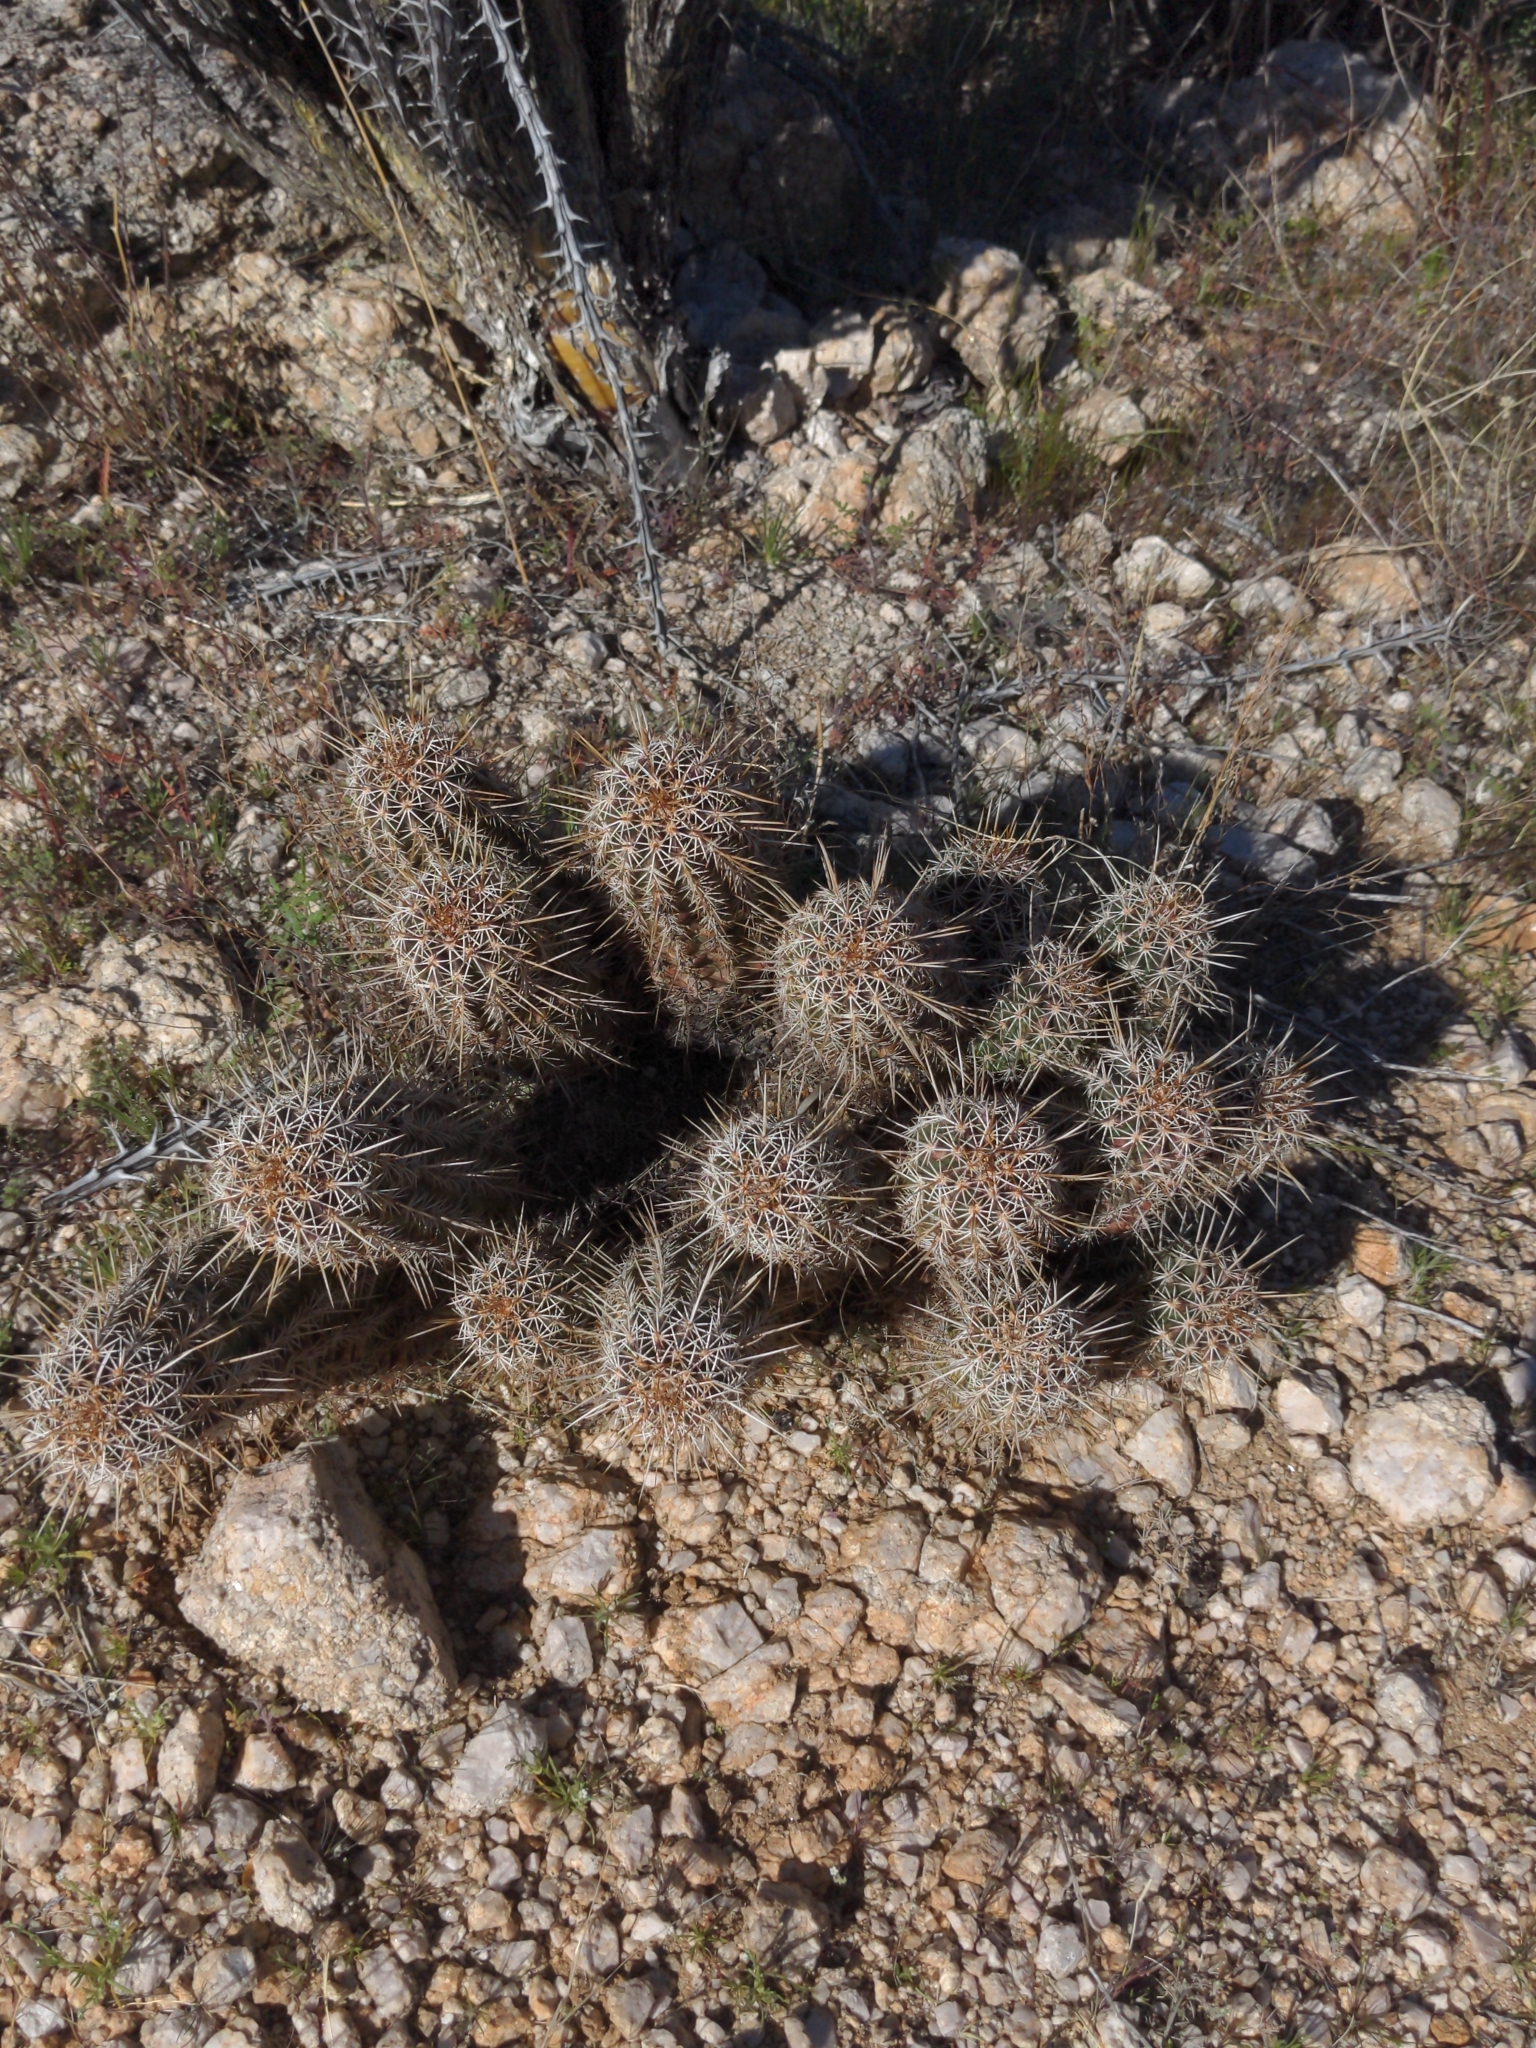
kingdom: Plantae
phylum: Tracheophyta
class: Magnoliopsida
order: Caryophyllales
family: Cactaceae
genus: Echinocereus
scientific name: Echinocereus fasciculatus
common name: Bundle hedgehog
